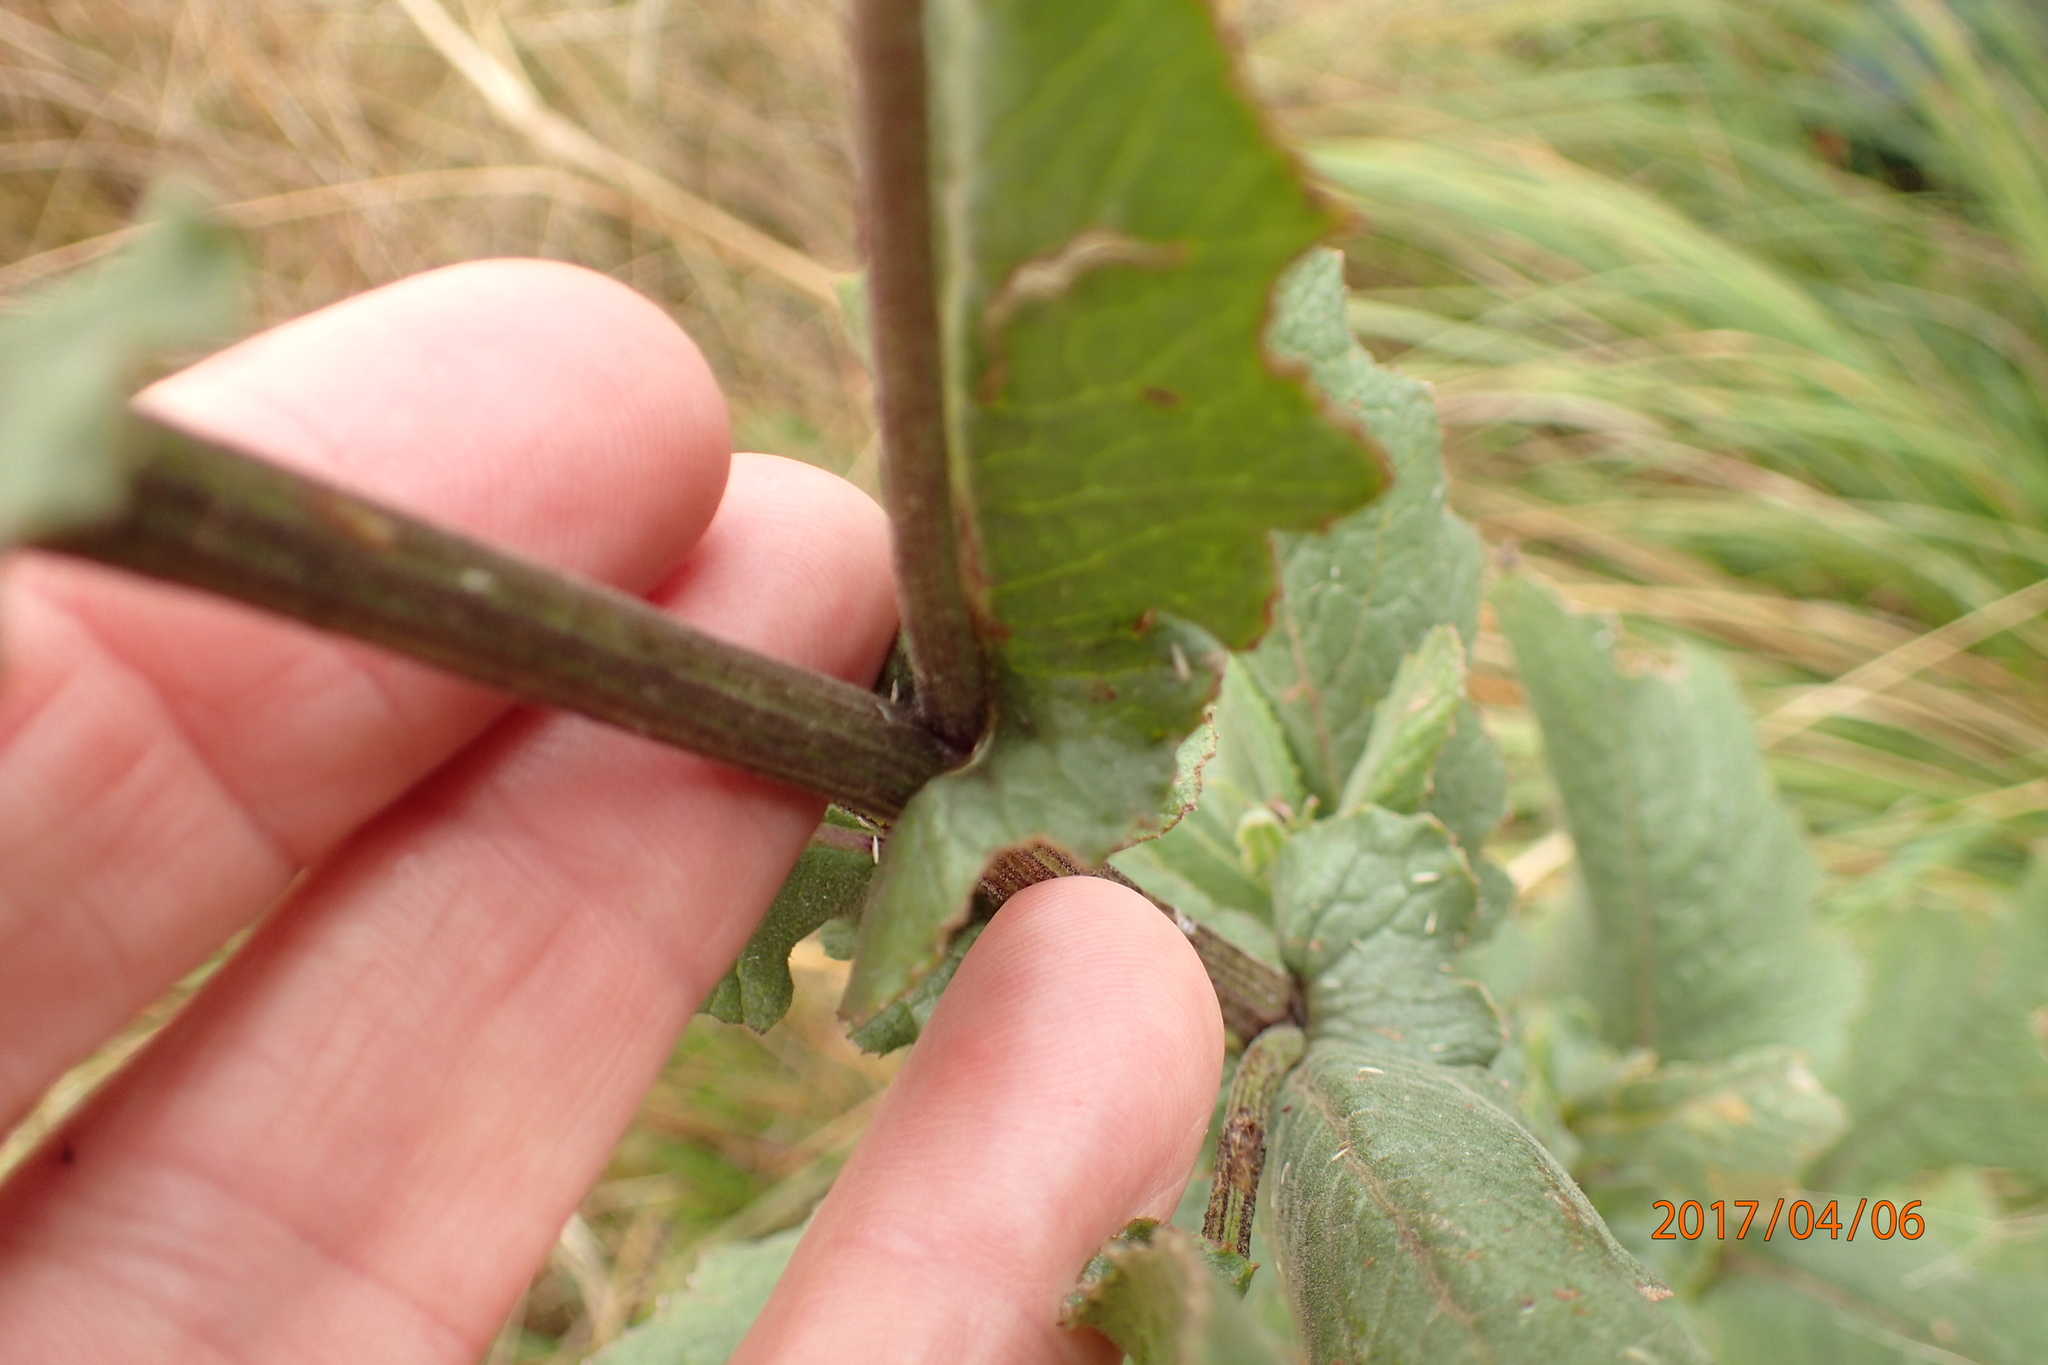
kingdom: Plantae
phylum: Tracheophyta
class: Magnoliopsida
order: Asterales
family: Asteraceae
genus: Senecio
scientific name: Senecio gerrardii
